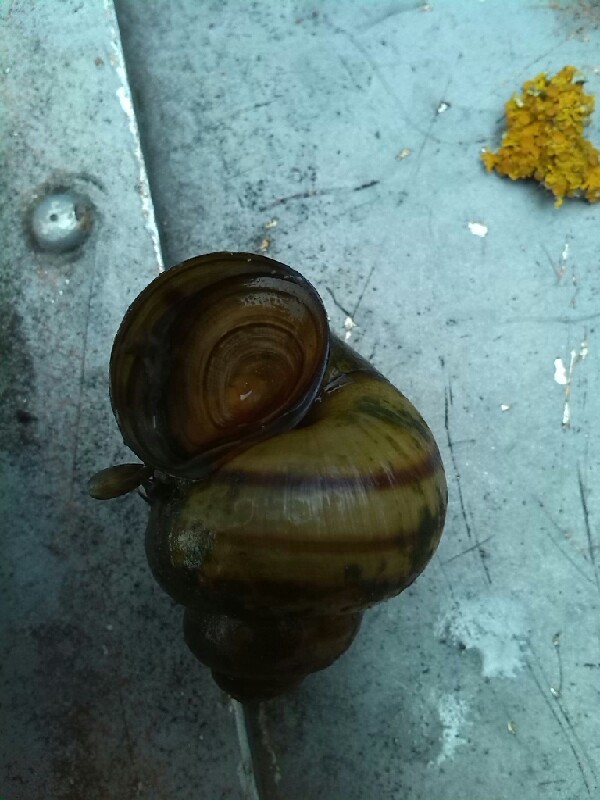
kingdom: Animalia
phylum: Mollusca
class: Gastropoda
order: Architaenioglossa
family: Viviparidae
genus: Viviparus
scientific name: Viviparus contectus
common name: Lister's river snail
